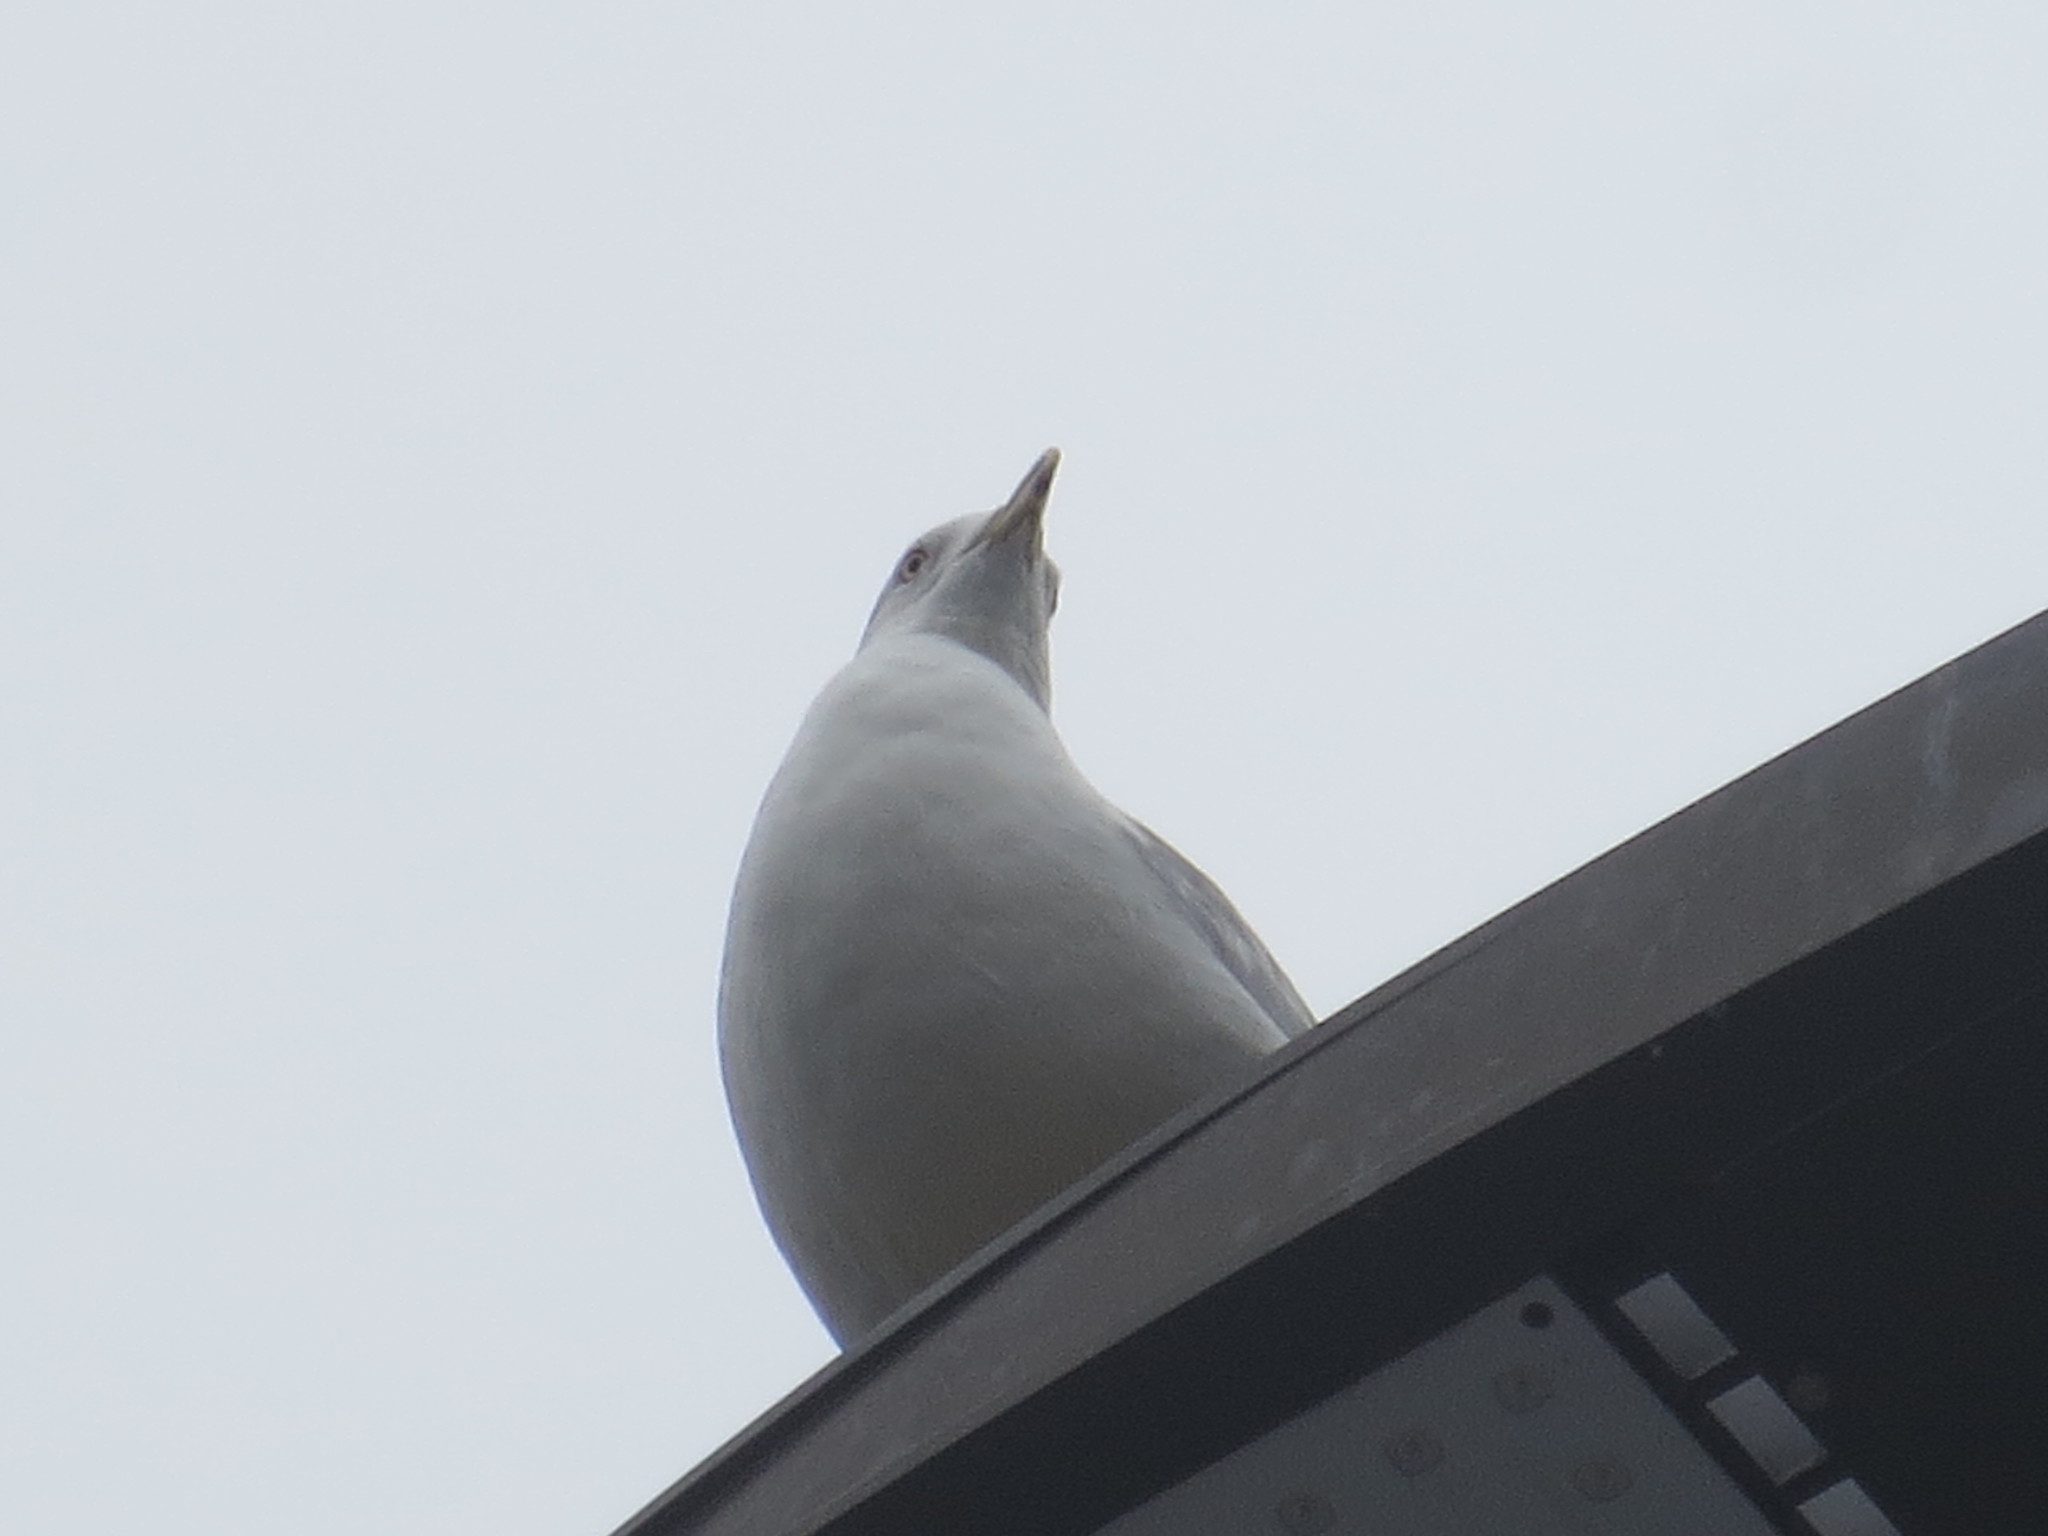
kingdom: Animalia
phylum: Chordata
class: Aves
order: Charadriiformes
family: Laridae
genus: Larus
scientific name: Larus delawarensis
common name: Ring-billed gull
